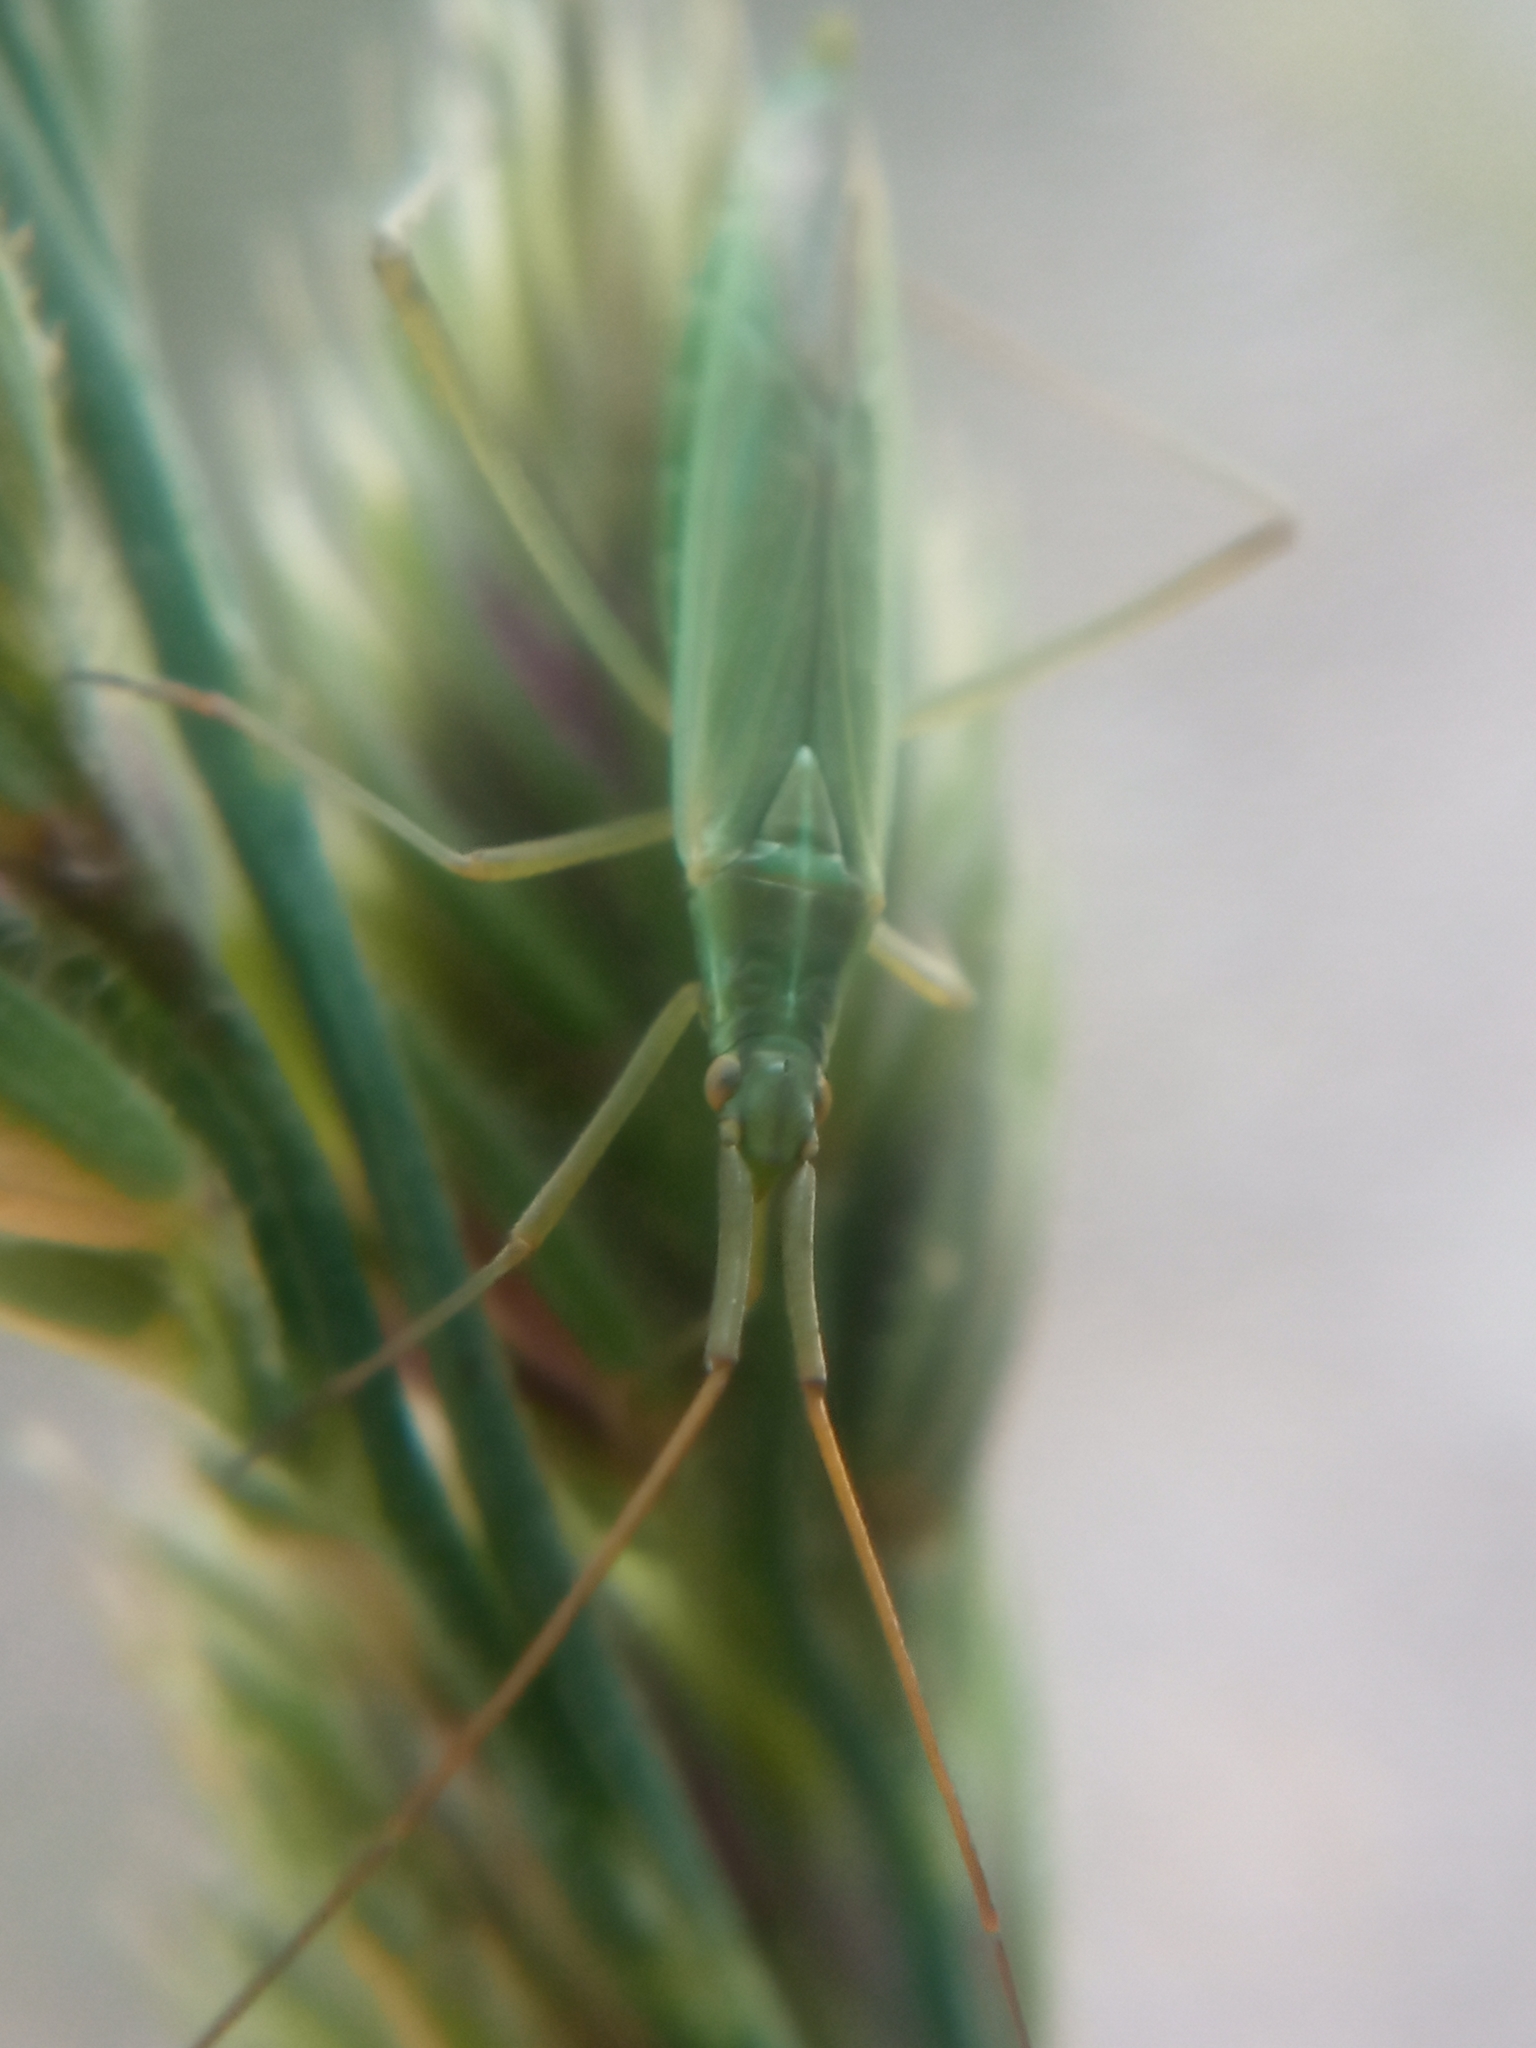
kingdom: Animalia
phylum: Arthropoda
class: Insecta
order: Hemiptera
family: Miridae
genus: Megaloceroea
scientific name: Megaloceroea recticornis
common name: Plant bug
